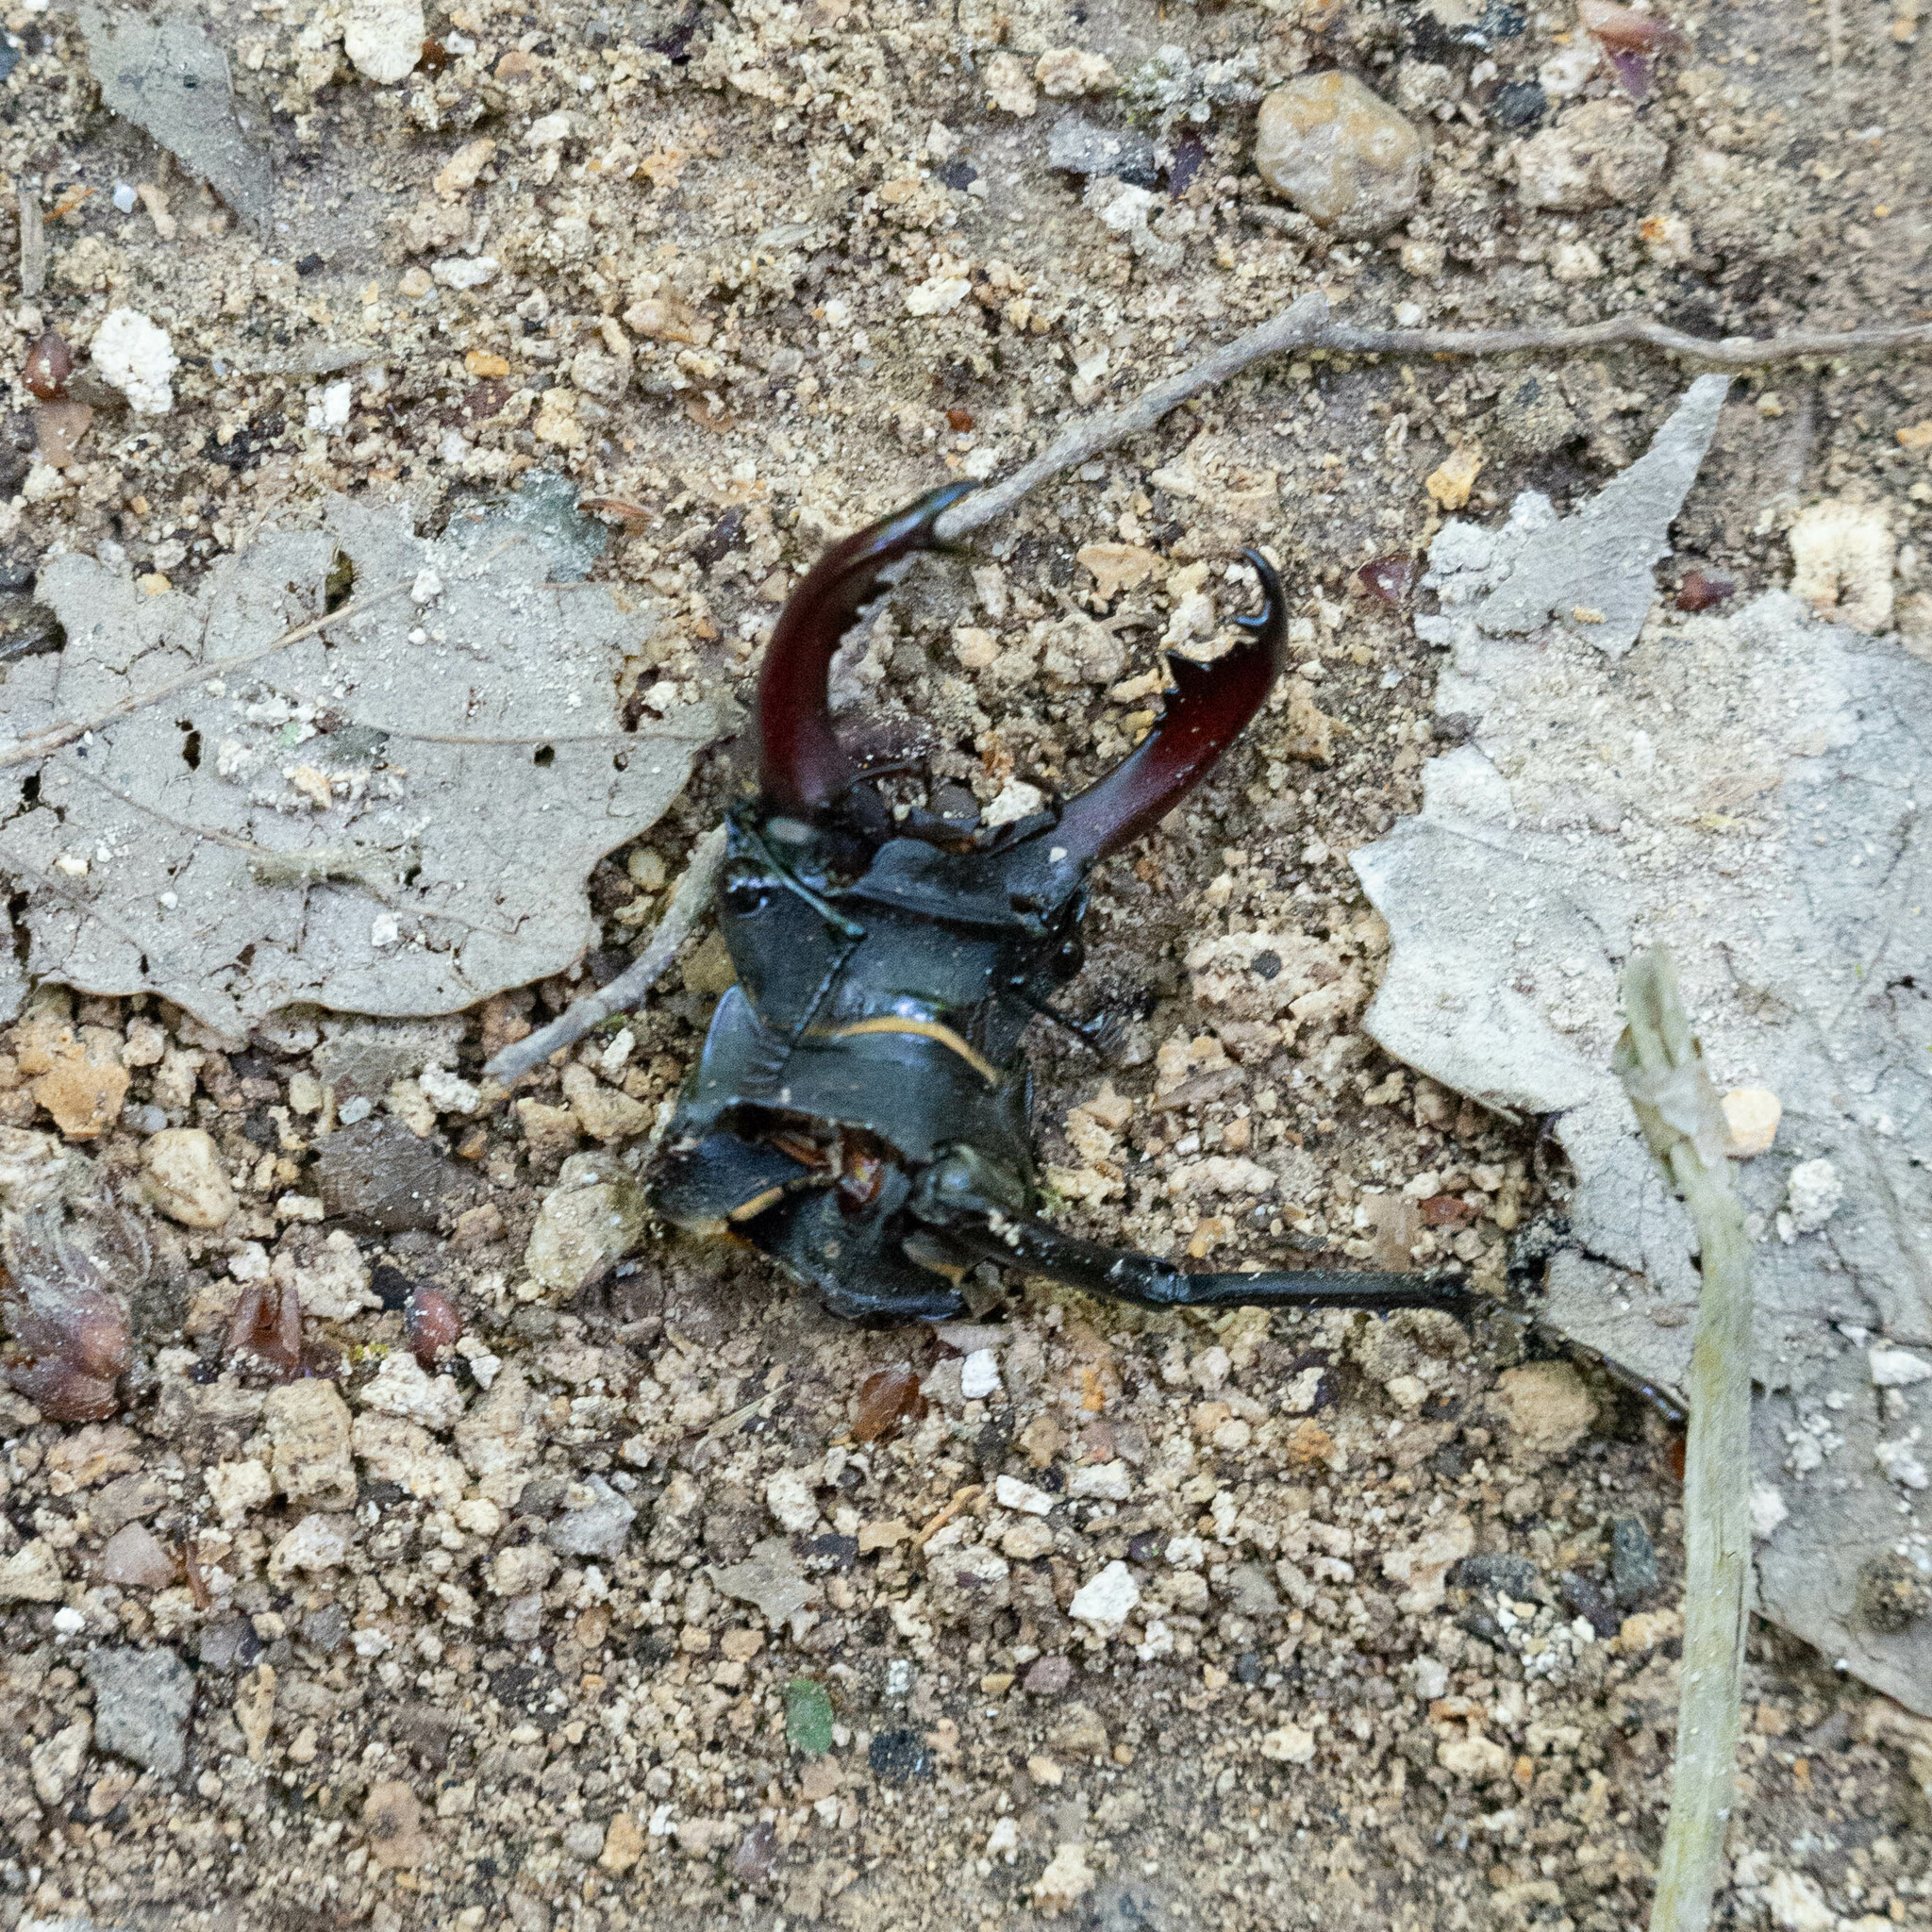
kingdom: Animalia
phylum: Arthropoda
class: Insecta
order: Coleoptera
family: Lucanidae
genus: Lucanus
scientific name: Lucanus cervus
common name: Stag beetle
